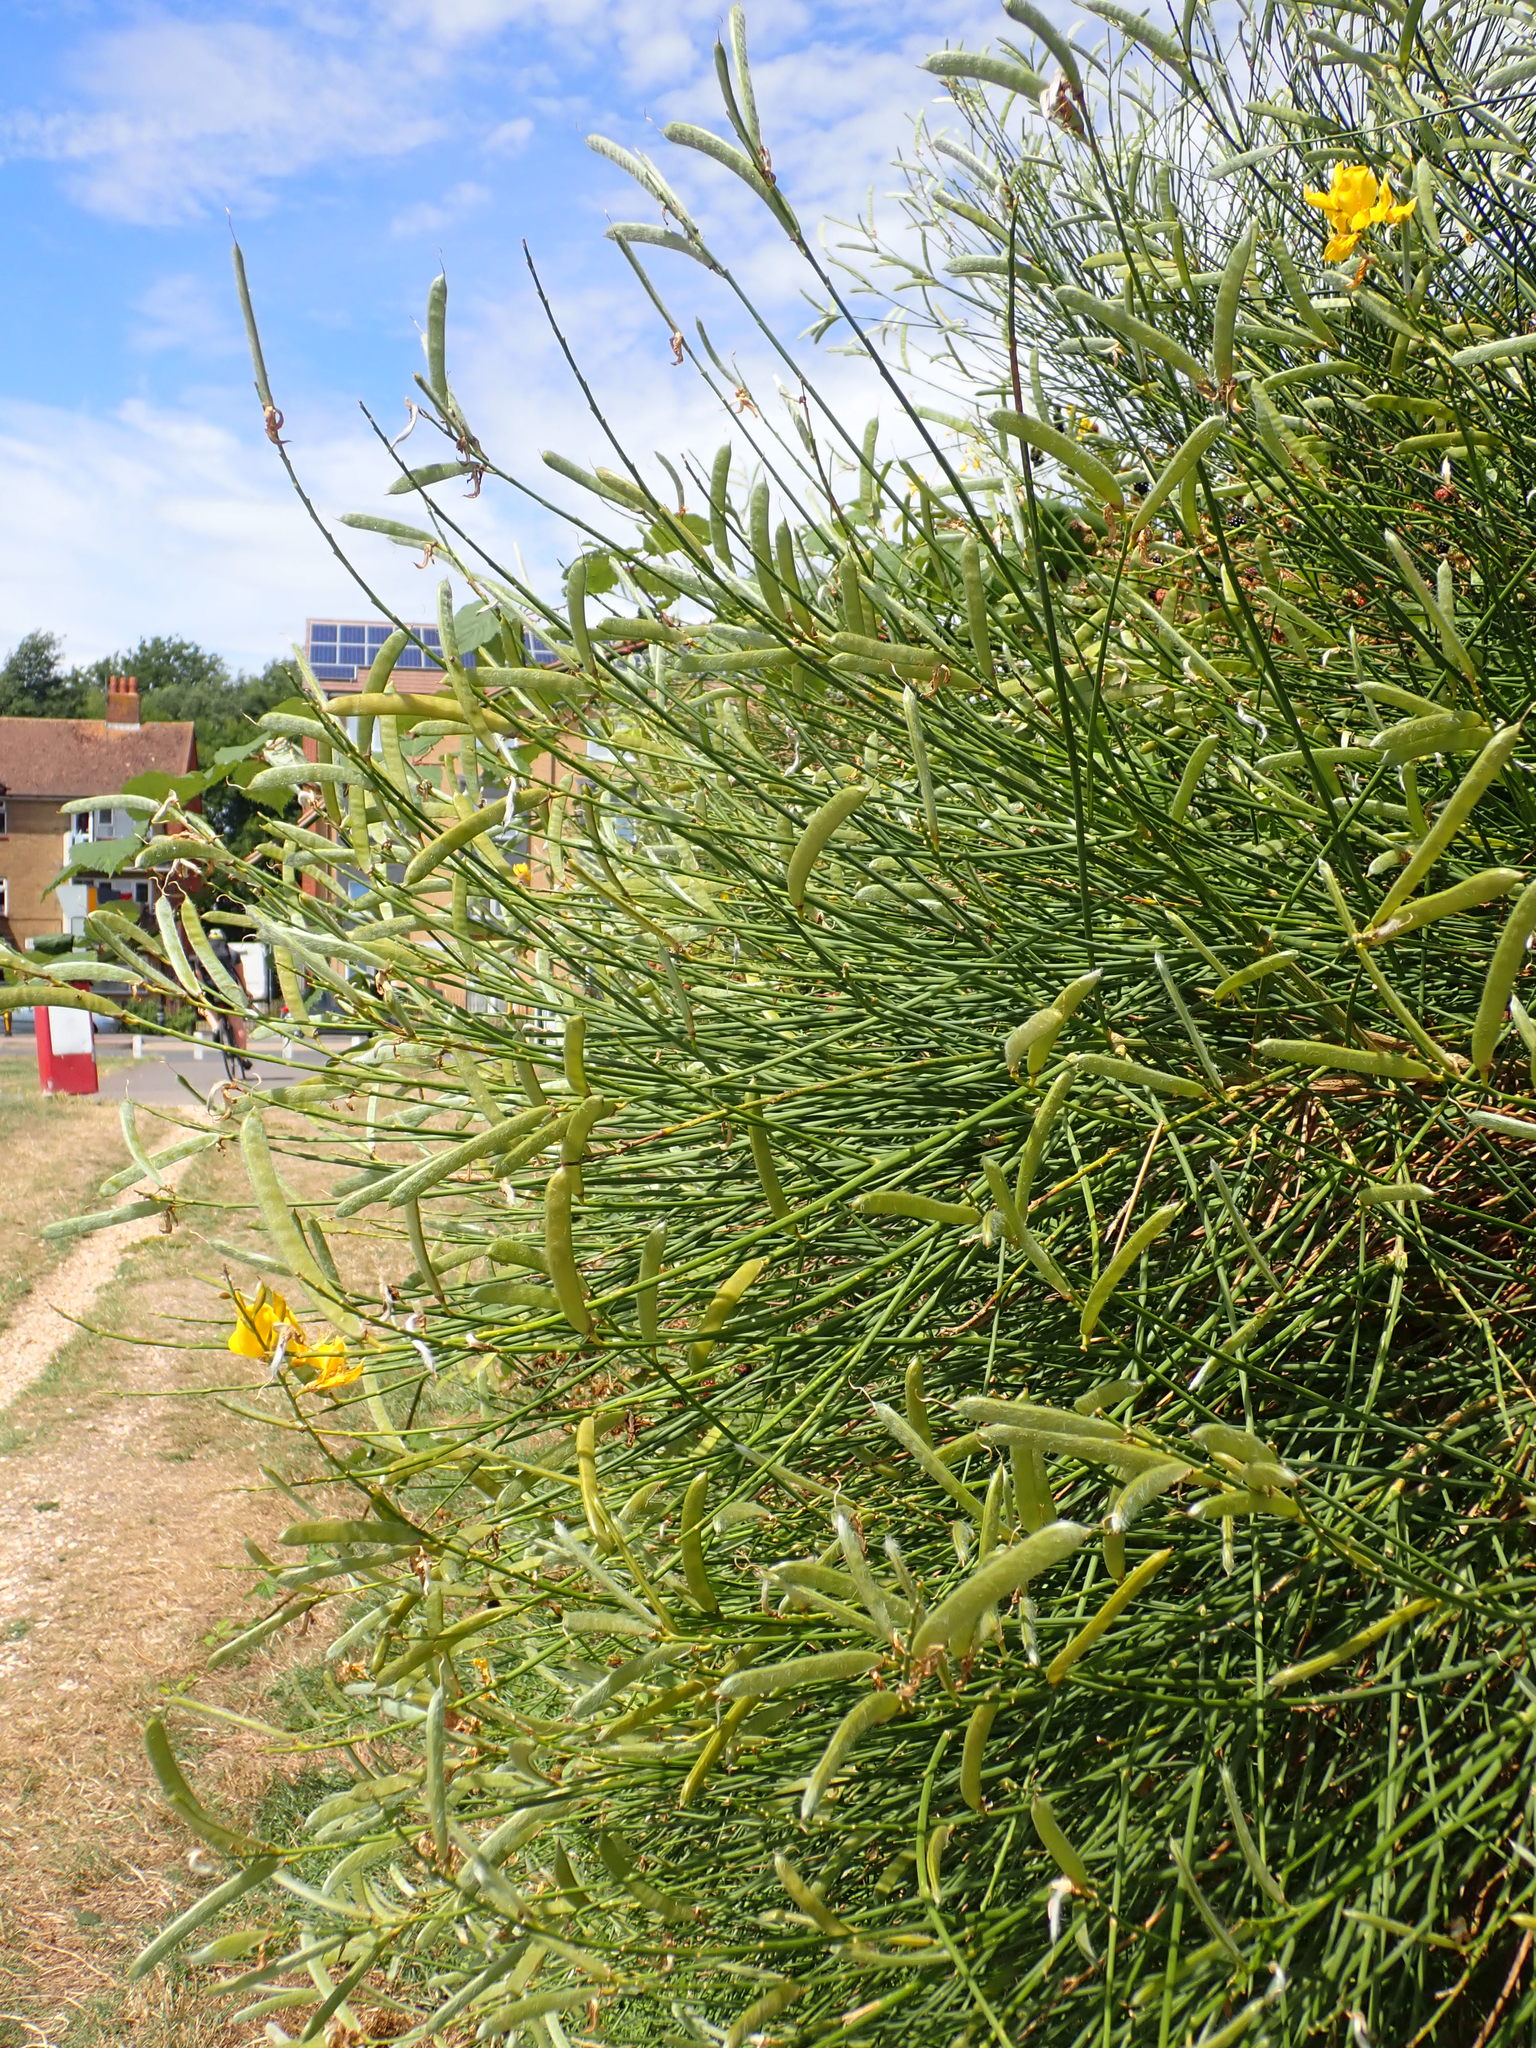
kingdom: Plantae
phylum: Tracheophyta
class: Magnoliopsida
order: Fabales
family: Fabaceae
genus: Spartium
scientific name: Spartium junceum
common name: Spanish broom
